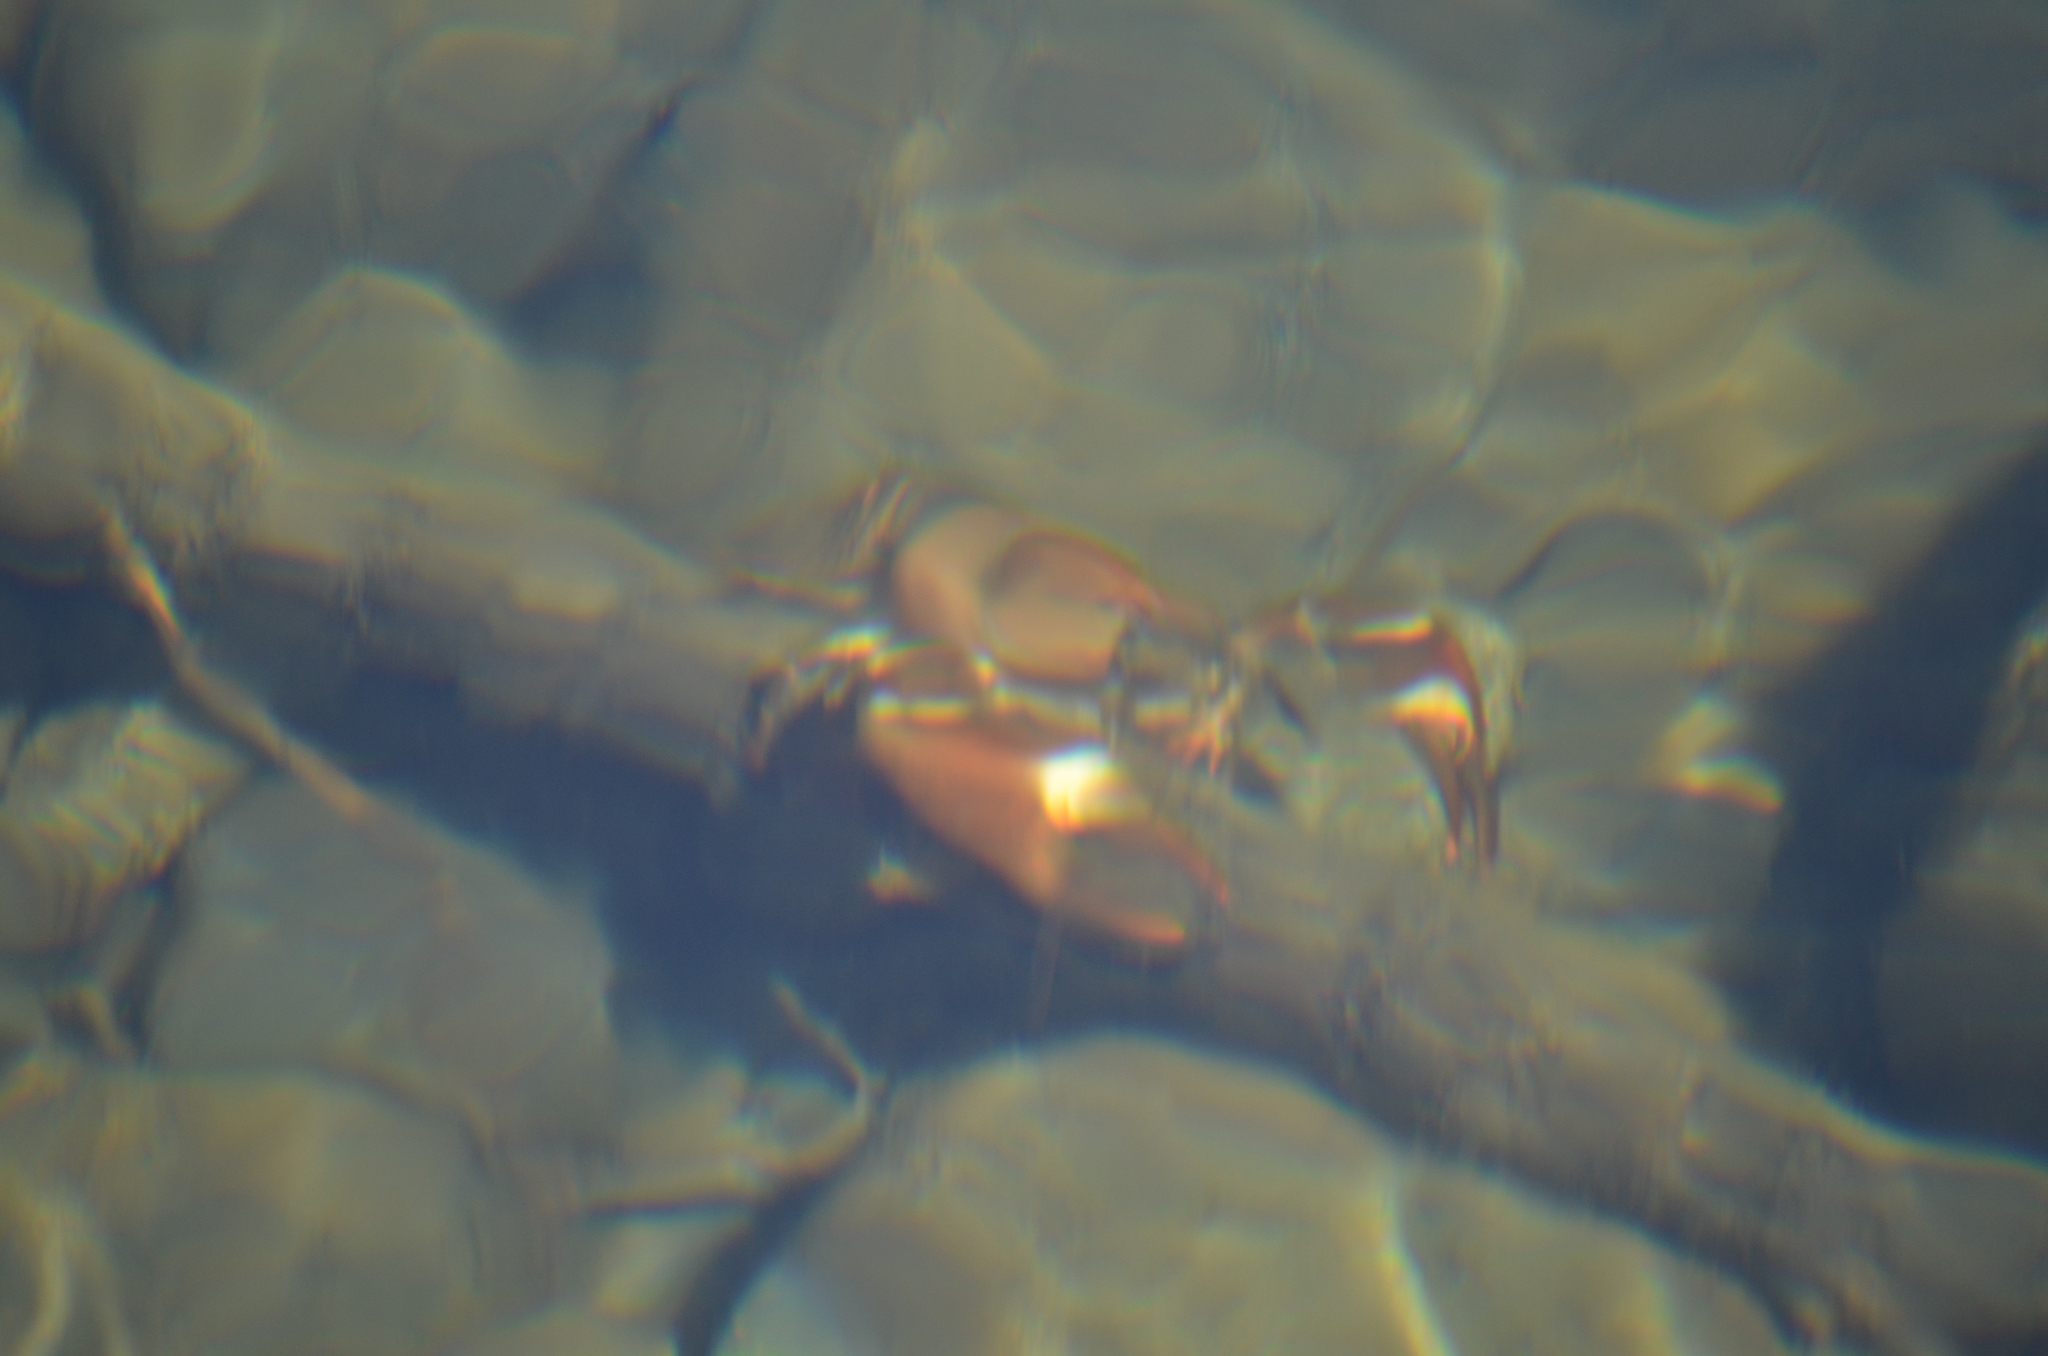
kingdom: Animalia
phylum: Arthropoda
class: Malacostraca
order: Decapoda
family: Astacidae
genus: Pacifastacus
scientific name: Pacifastacus leniusculus
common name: Signal crayfish
